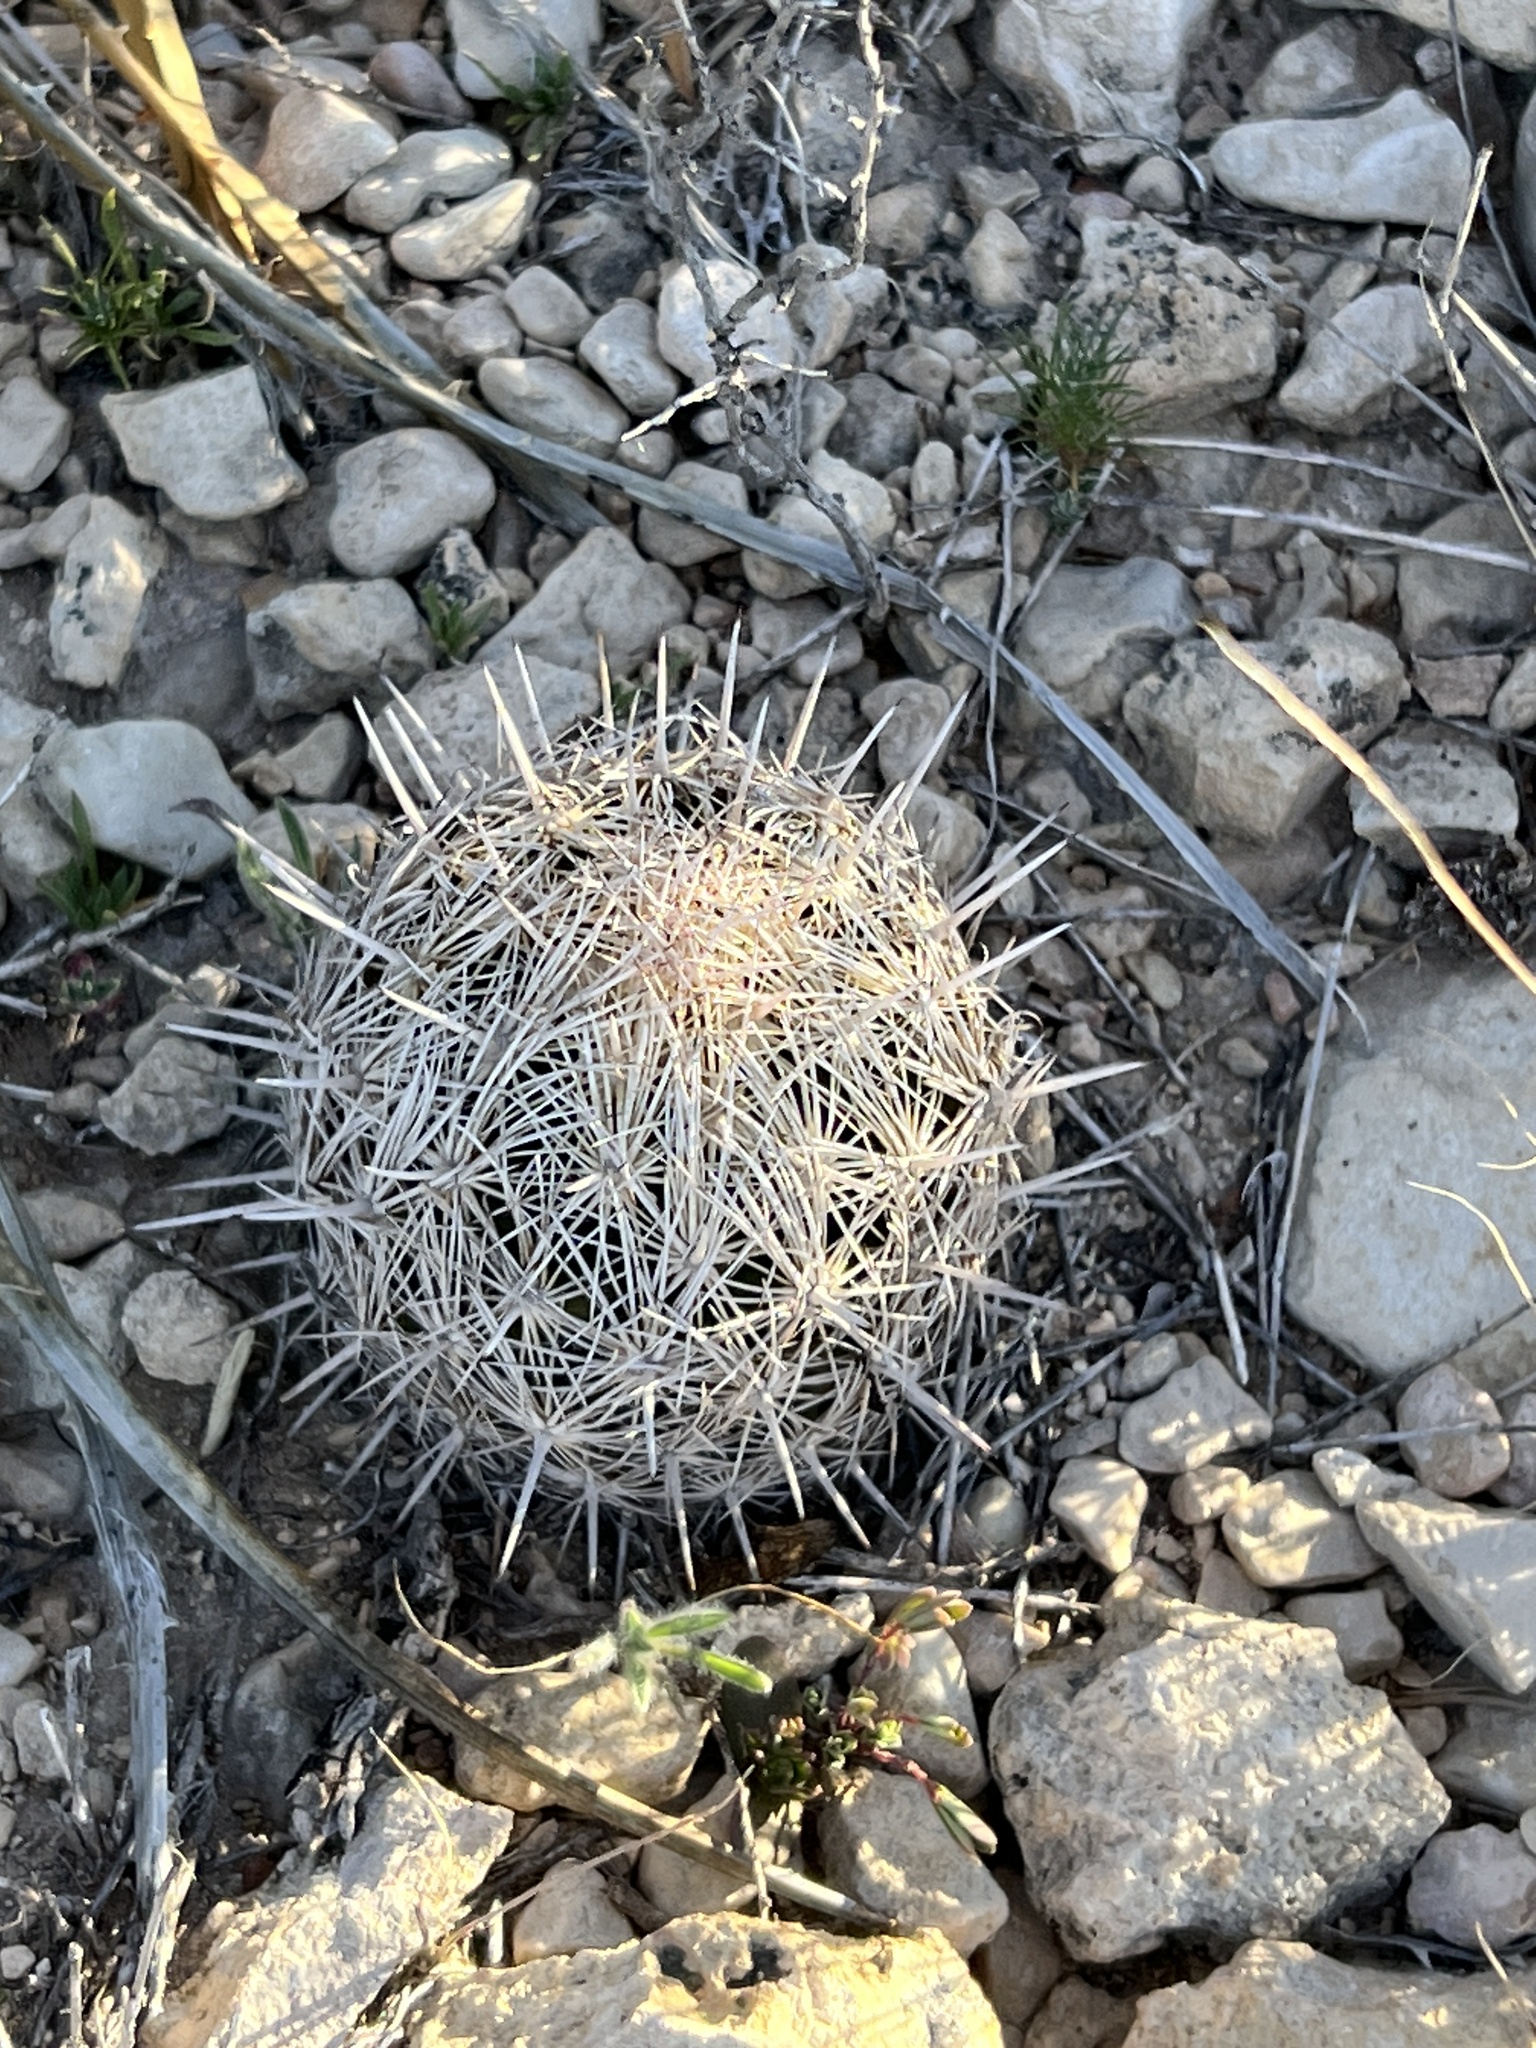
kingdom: Plantae
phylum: Tracheophyta
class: Magnoliopsida
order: Caryophyllales
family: Cactaceae
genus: Coryphantha
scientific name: Coryphantha echinus
